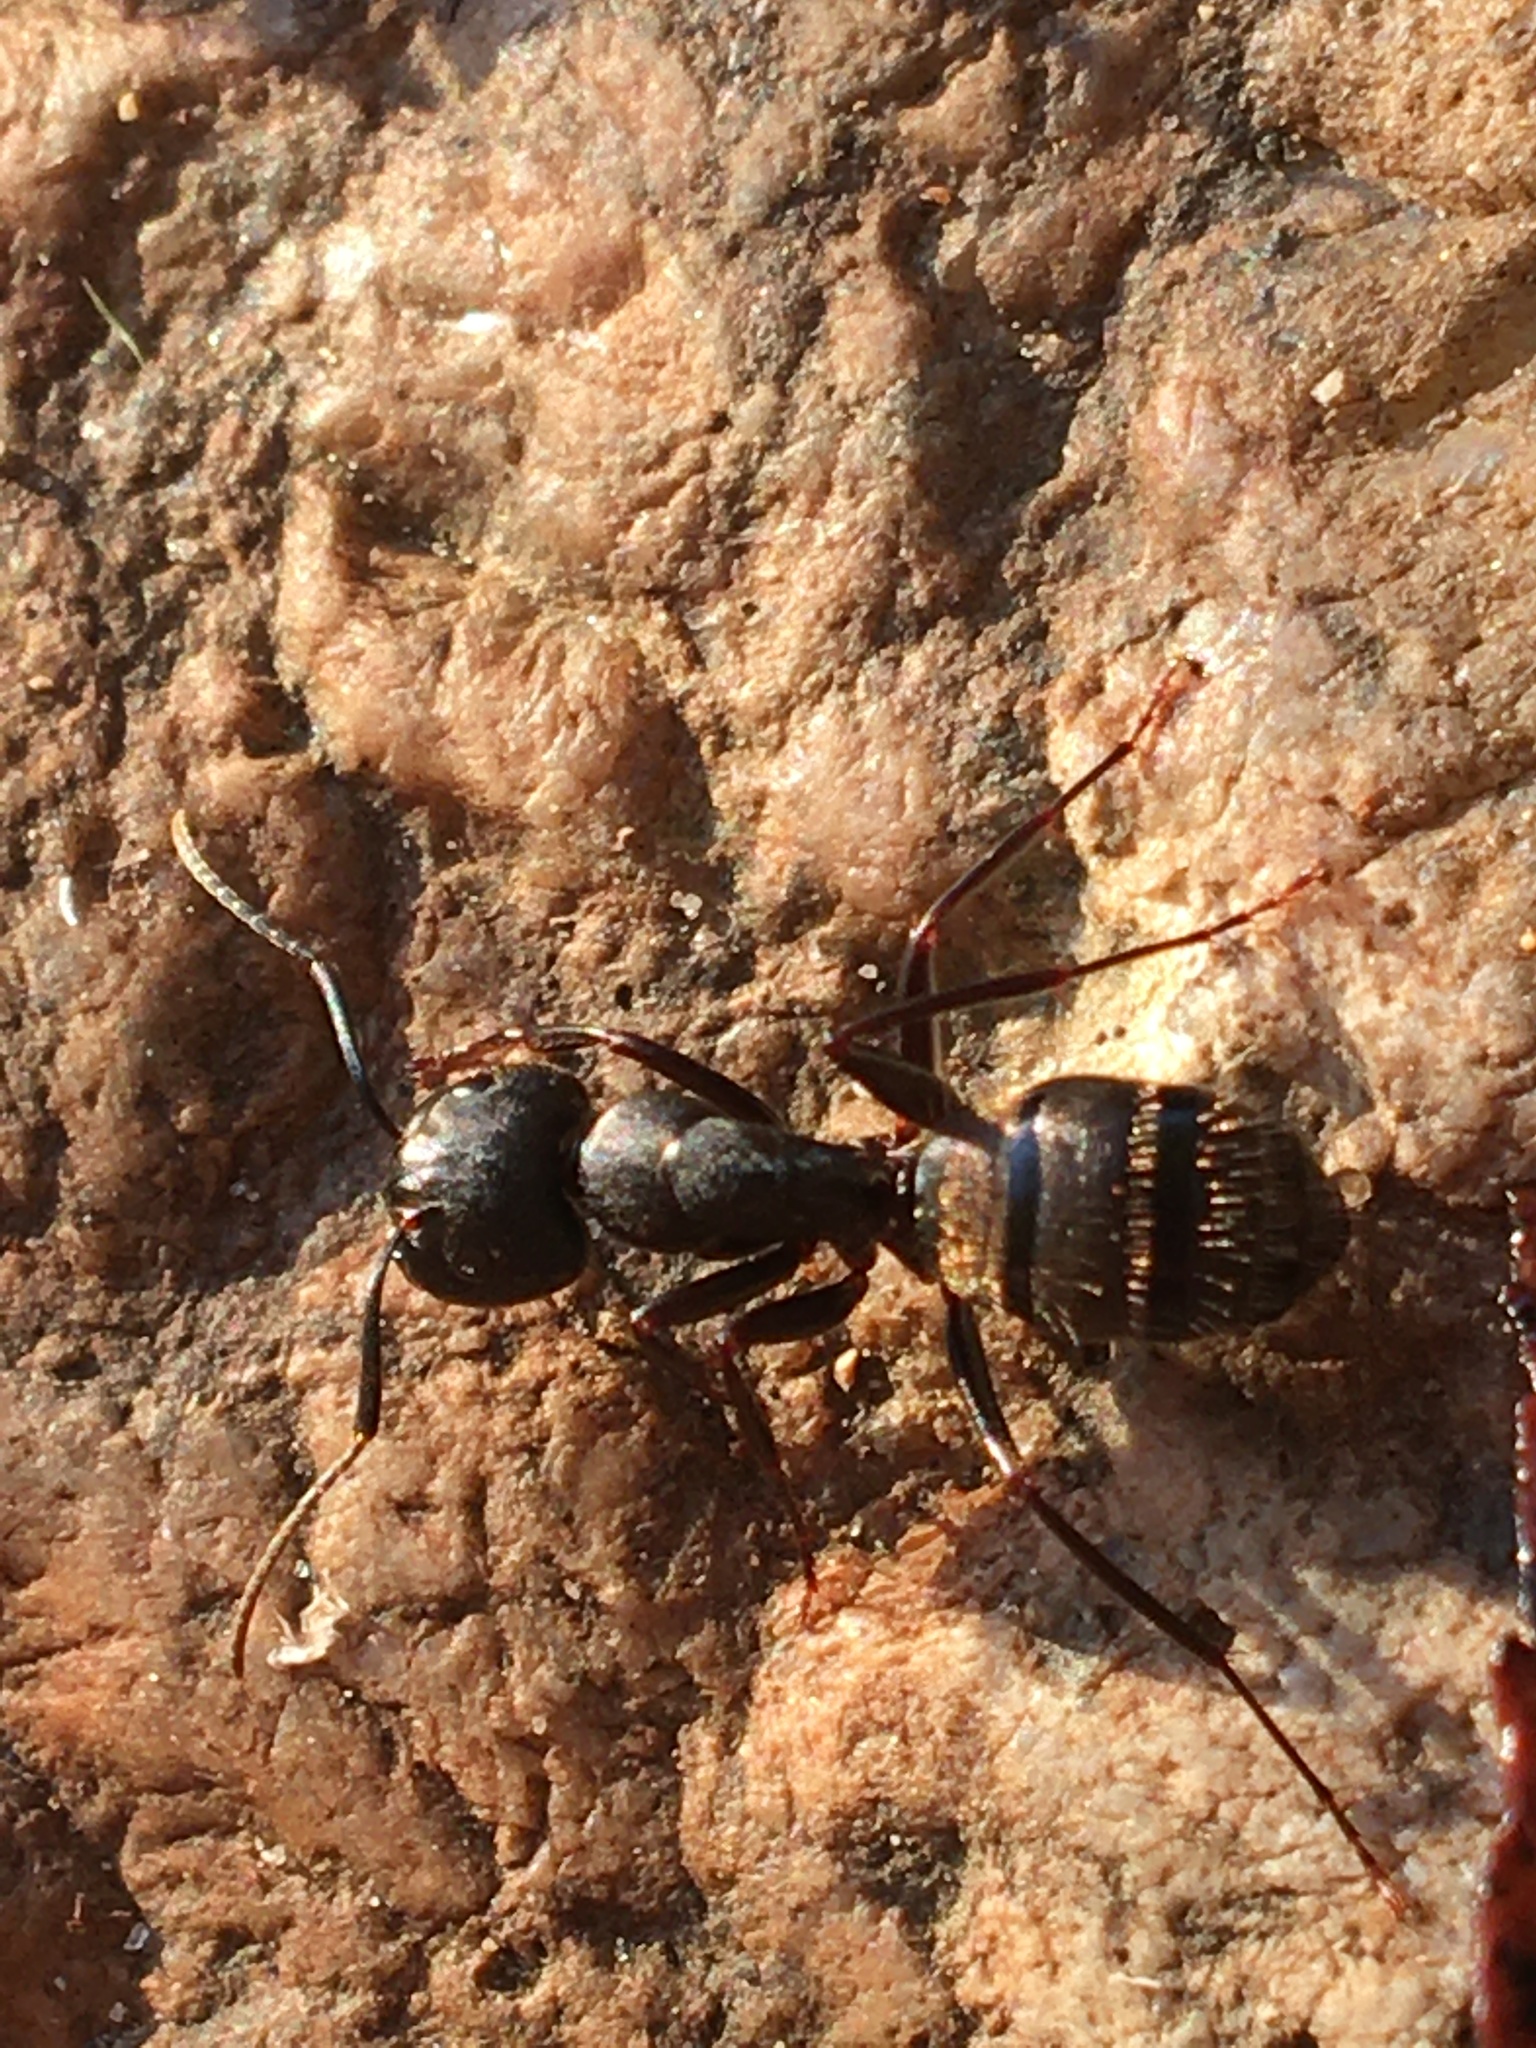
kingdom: Animalia
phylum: Arthropoda
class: Insecta
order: Hymenoptera
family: Formicidae
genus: Camponotus
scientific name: Camponotus pennsylvanicus
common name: Black carpenter ant
